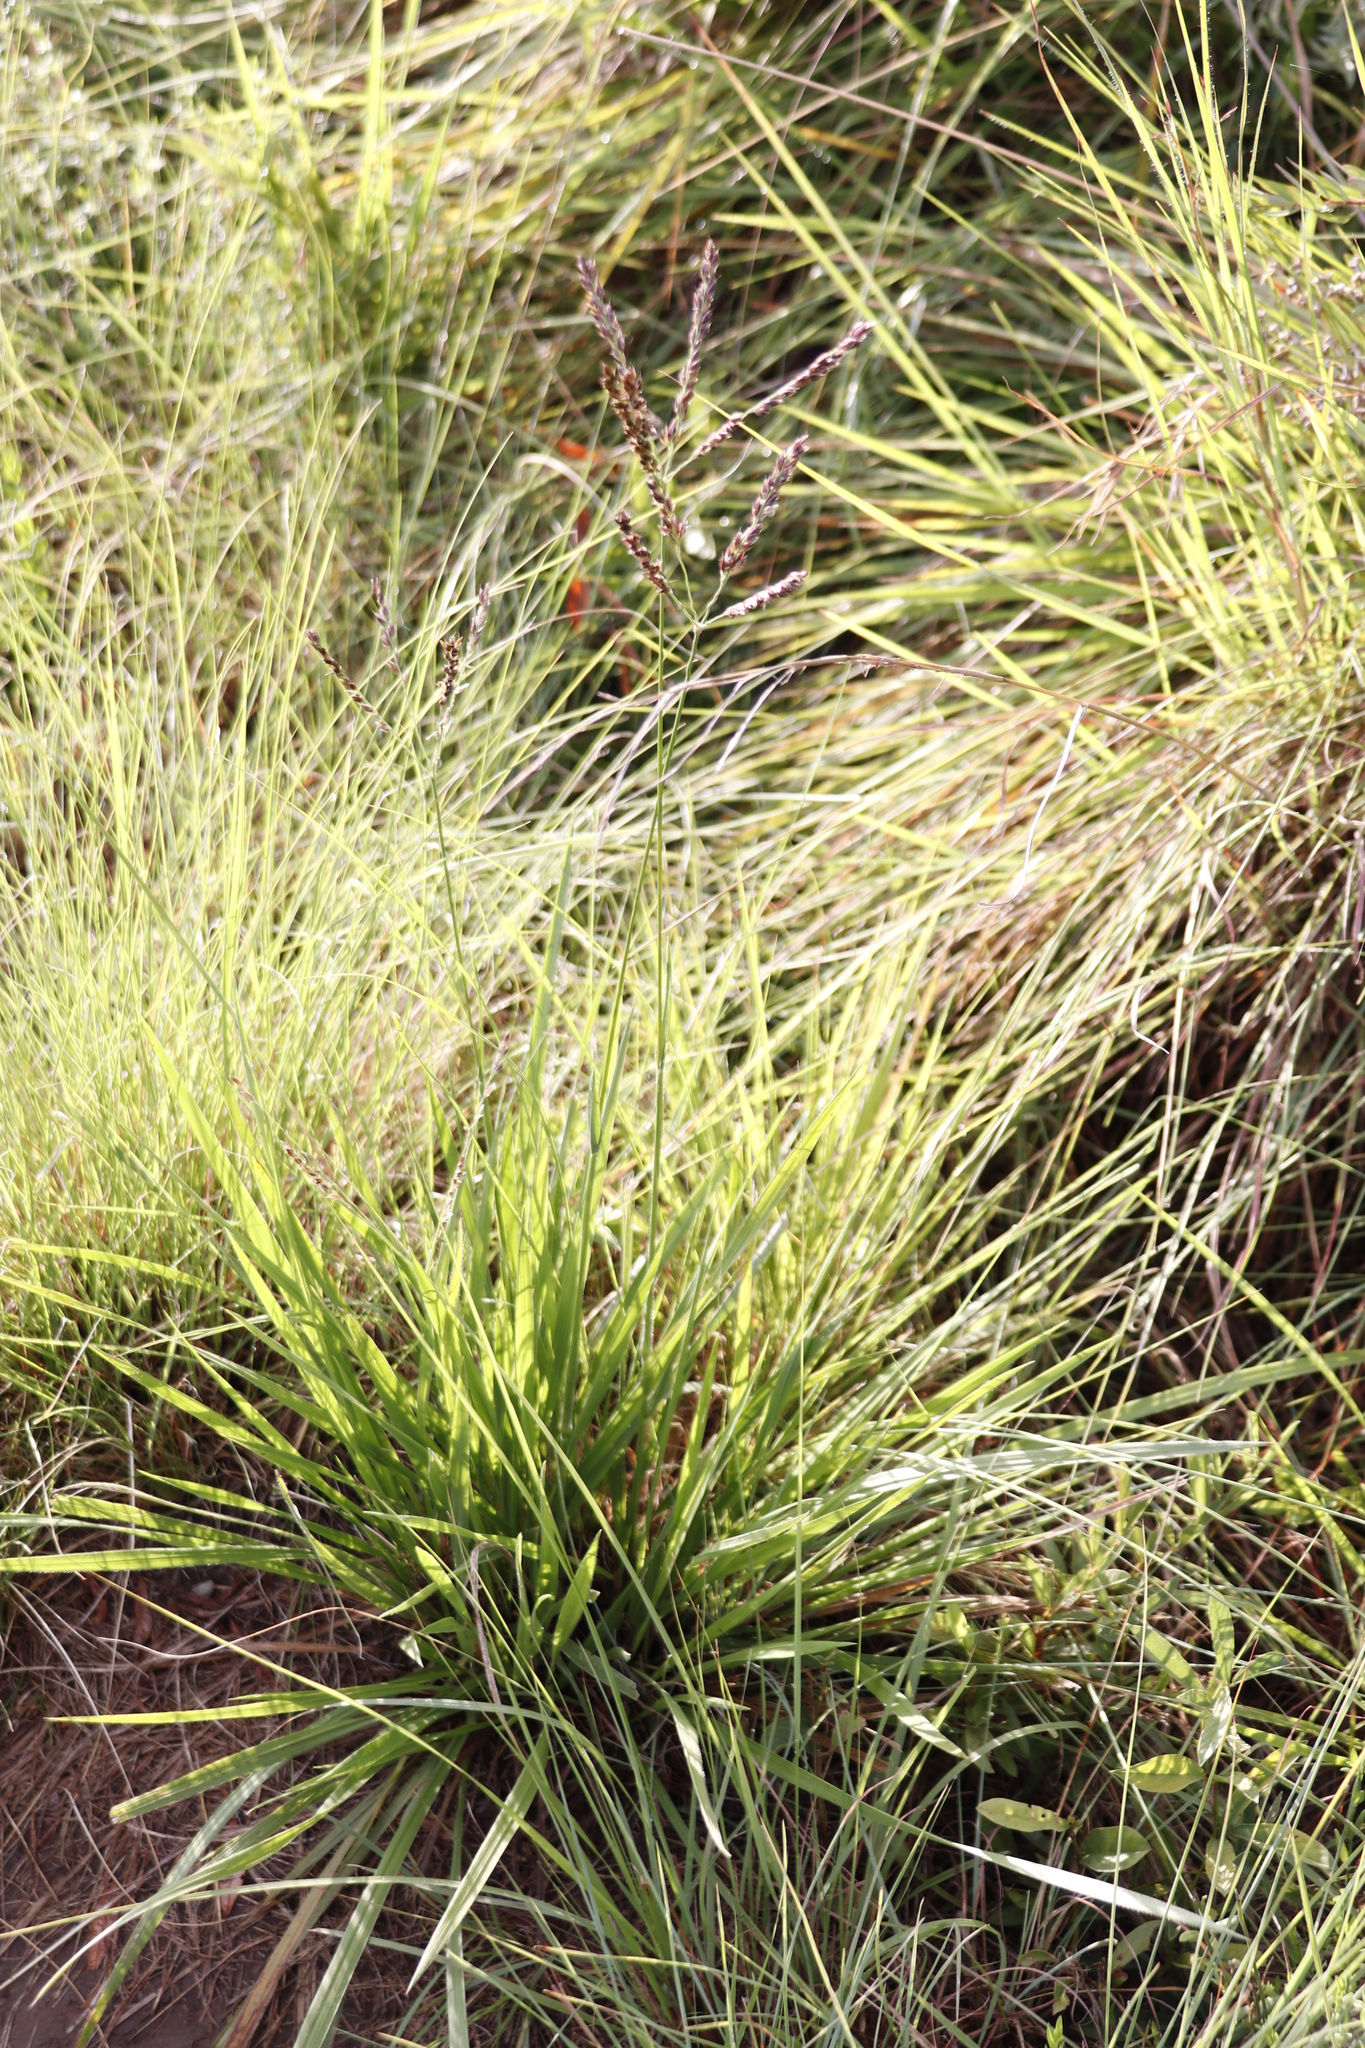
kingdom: Plantae
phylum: Tracheophyta
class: Liliopsida
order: Poales
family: Poaceae
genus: Alloteropsis
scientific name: Alloteropsis semialata
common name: Cockatoo grass
